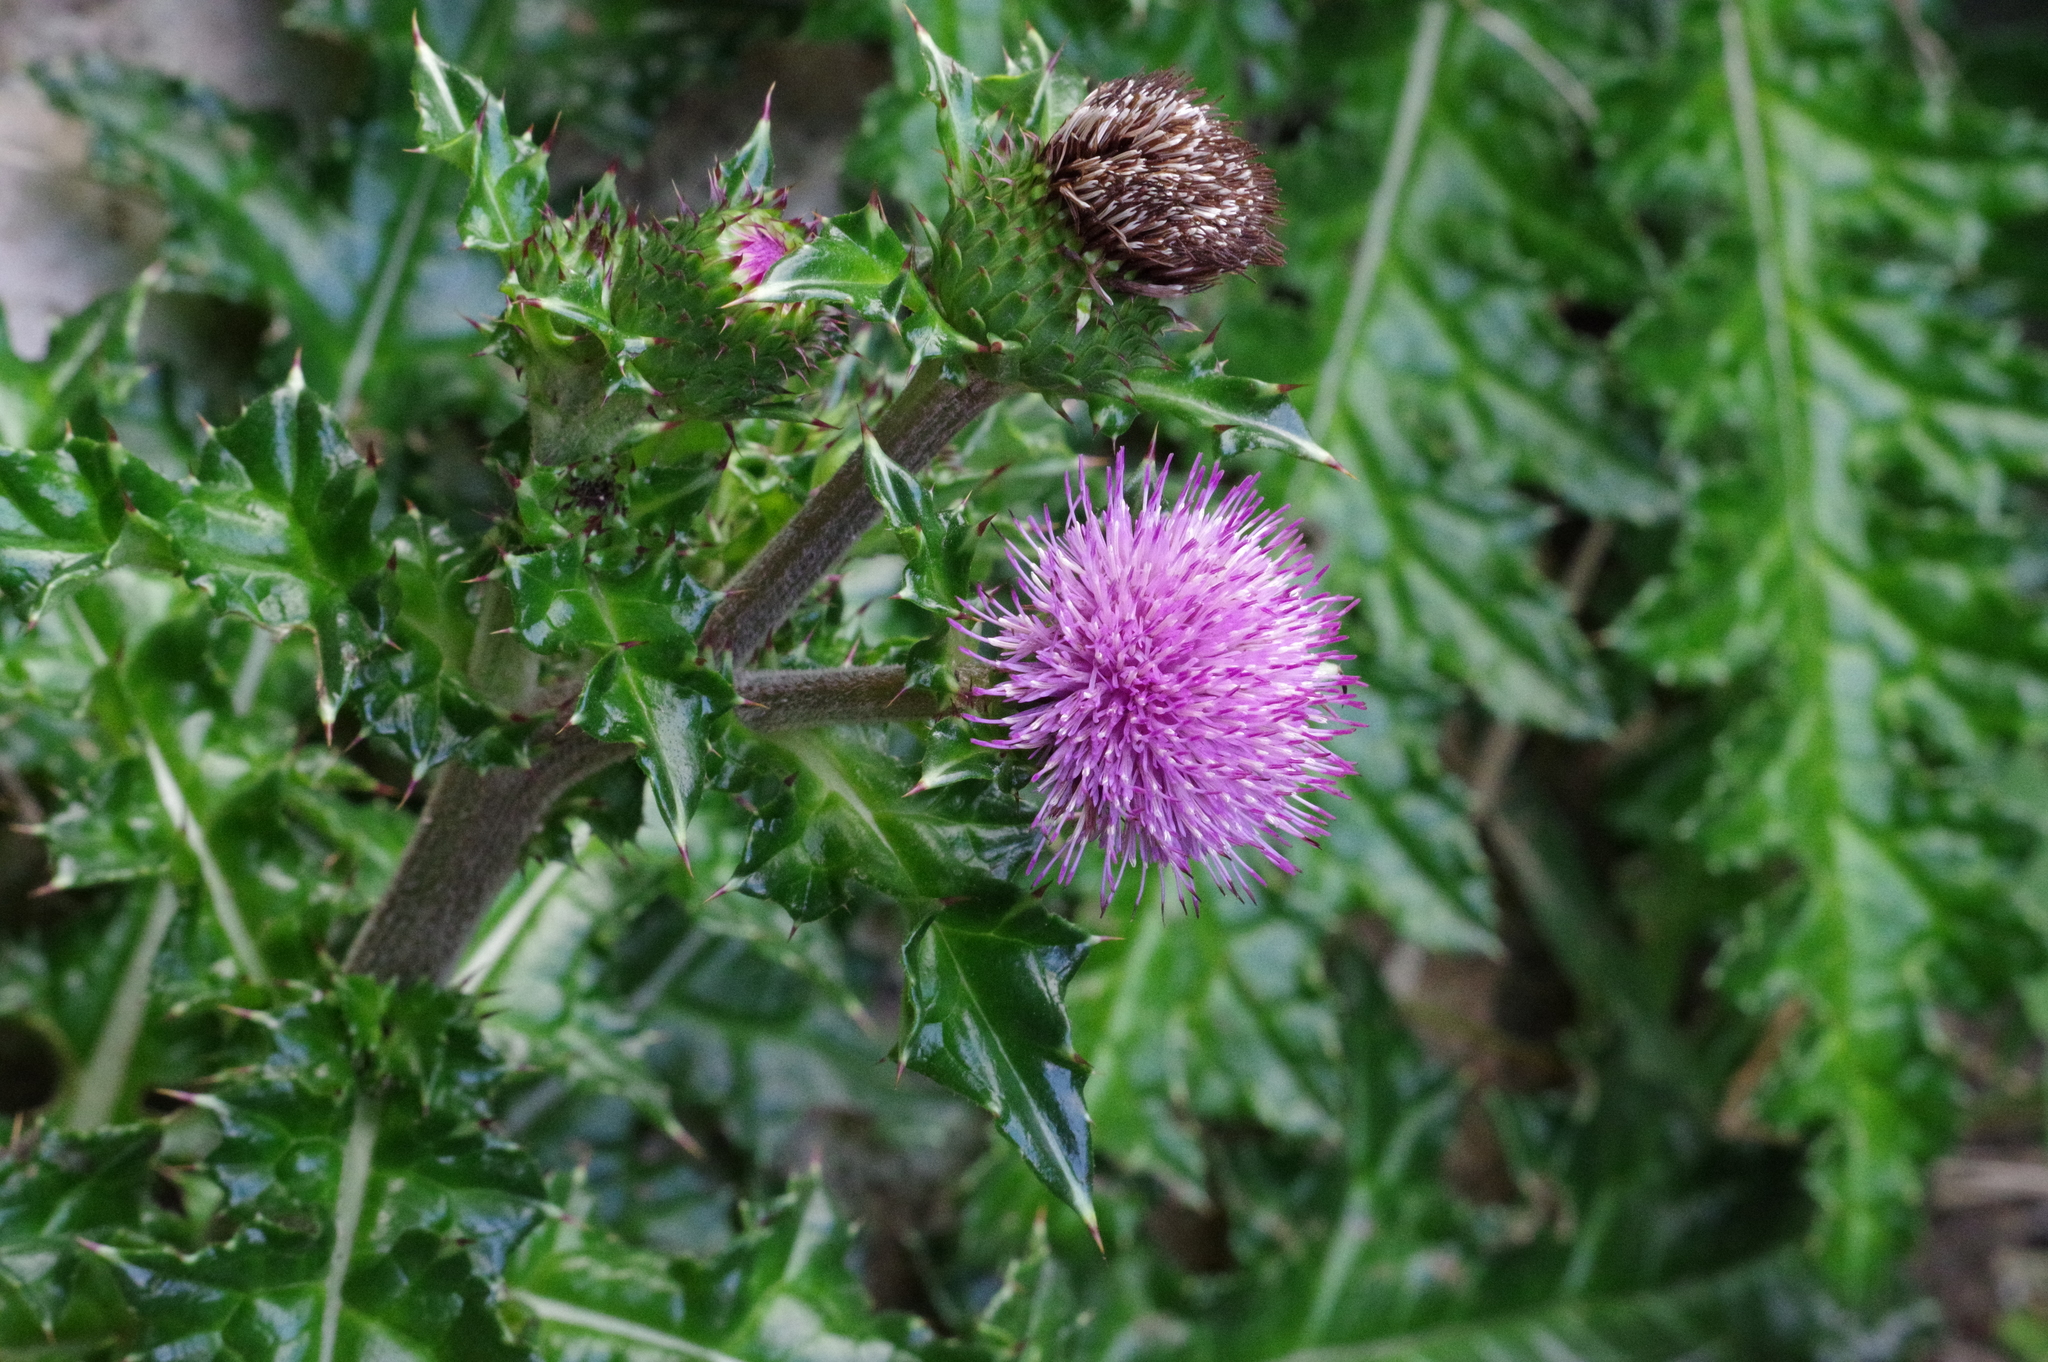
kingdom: Plantae
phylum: Tracheophyta
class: Magnoliopsida
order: Asterales
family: Asteraceae
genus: Cirsium
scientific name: Cirsium brevicaule
